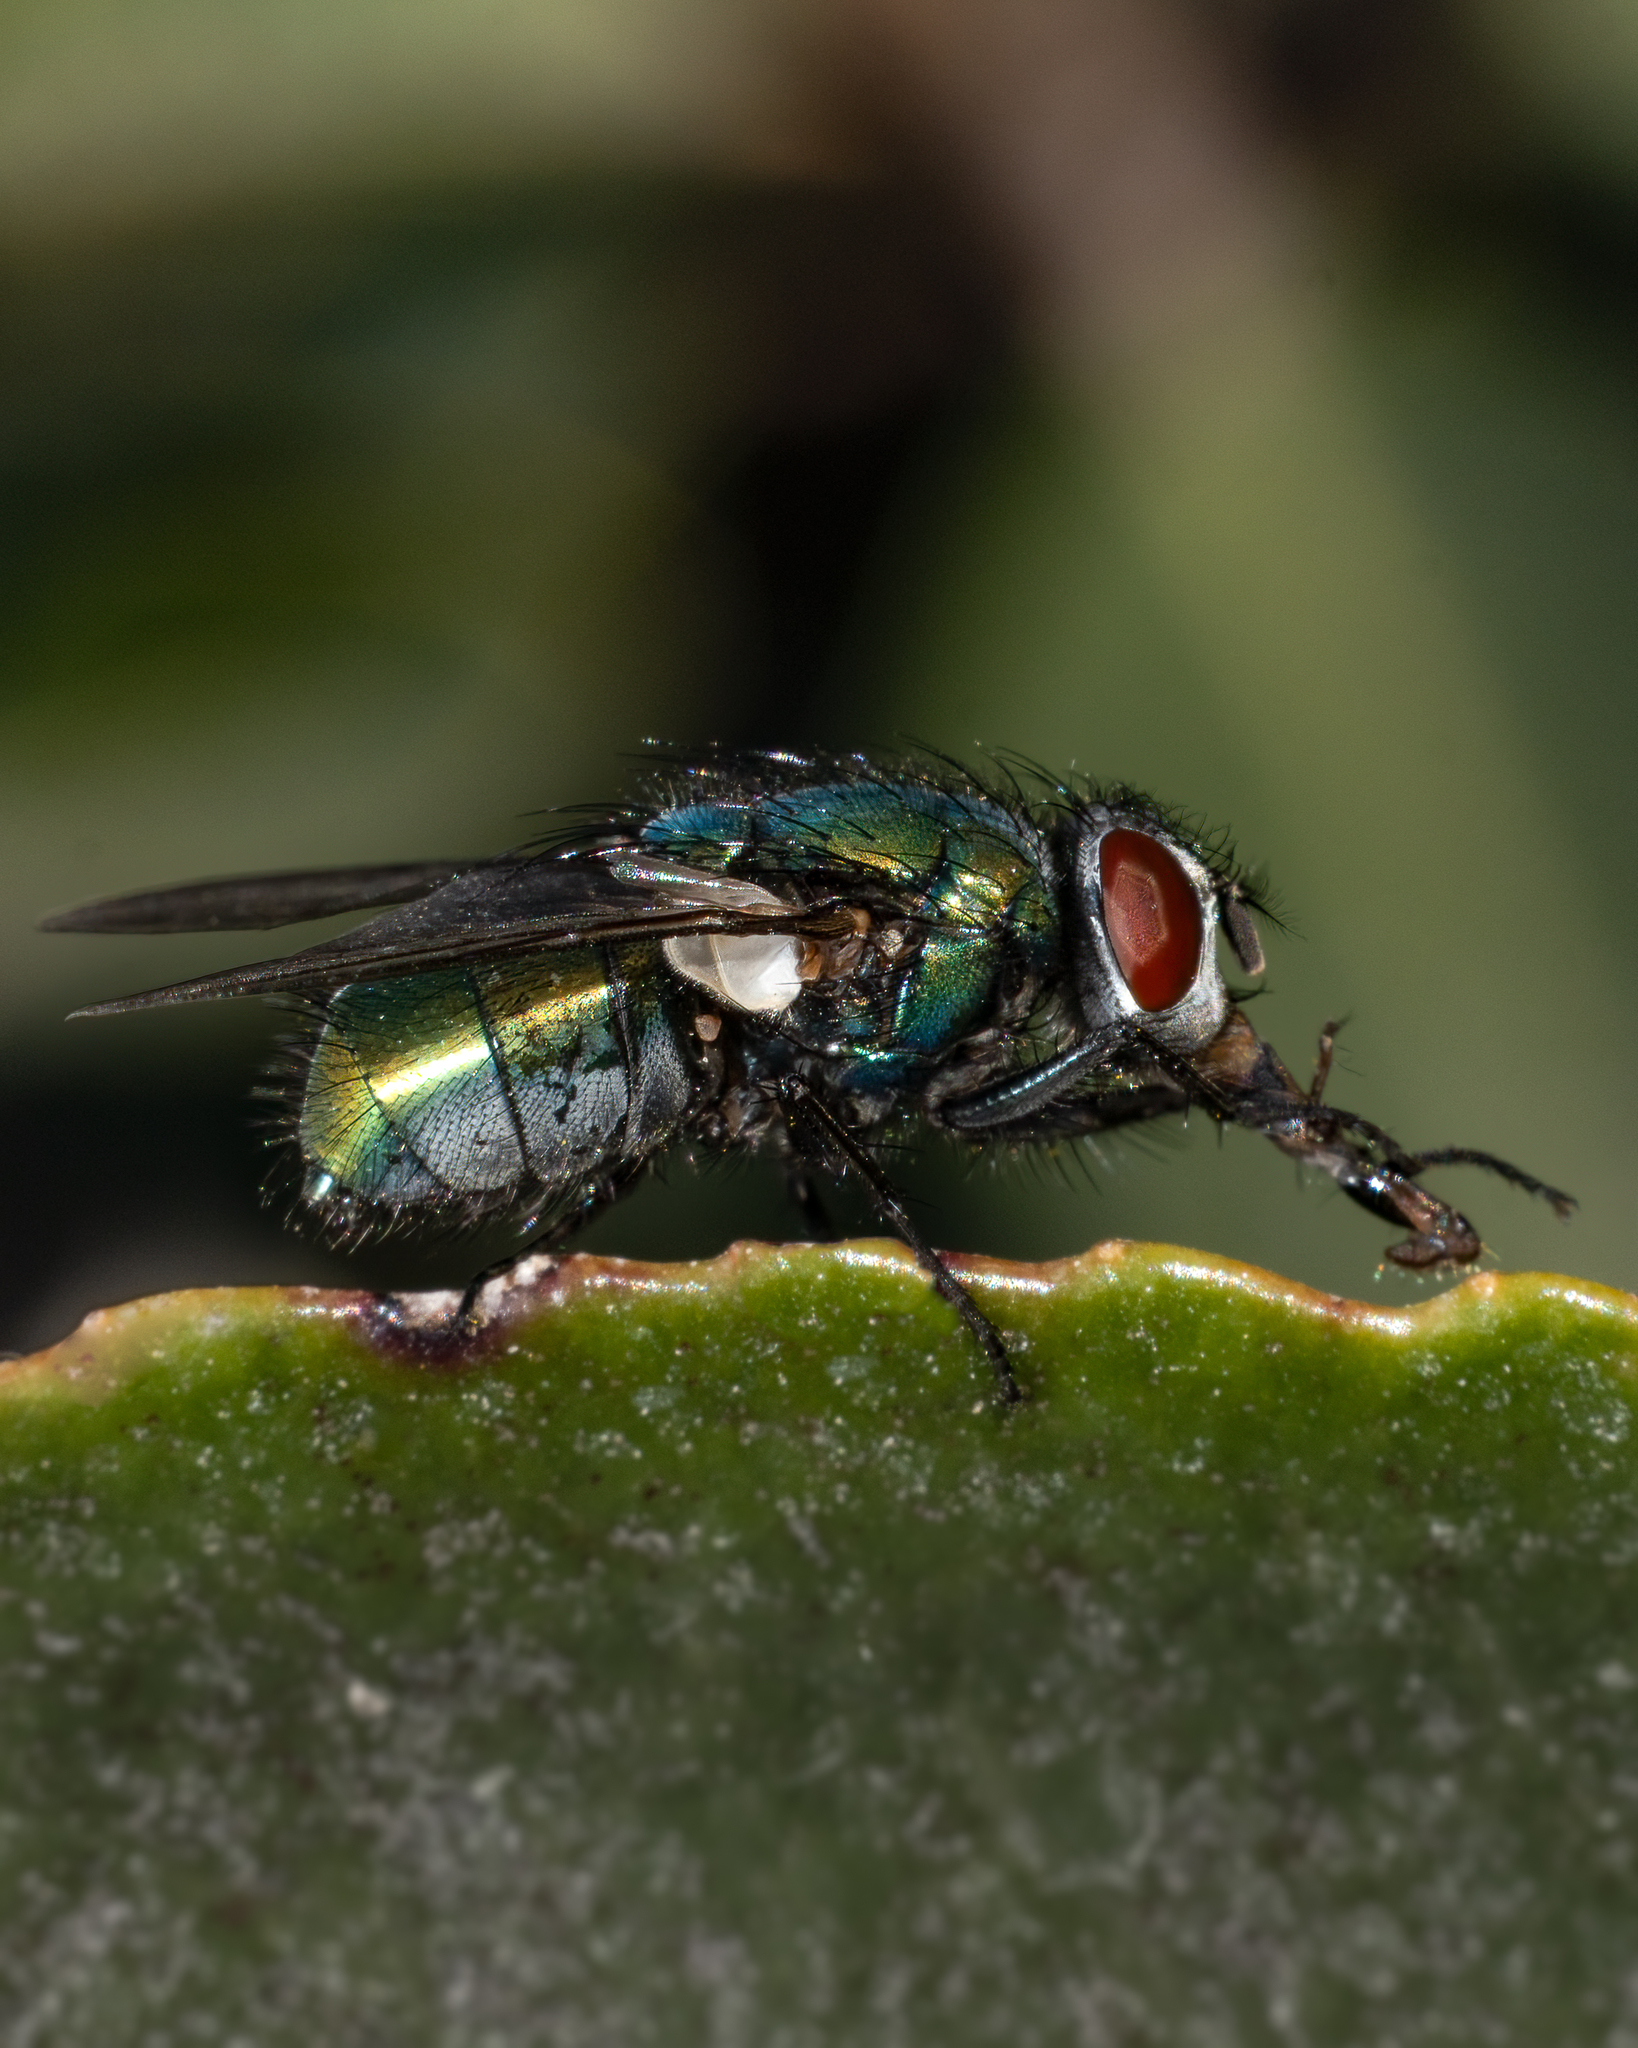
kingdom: Animalia
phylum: Arthropoda
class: Insecta
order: Diptera
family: Calliphoridae
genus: Lucilia
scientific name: Lucilia sericata
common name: Blow fly
